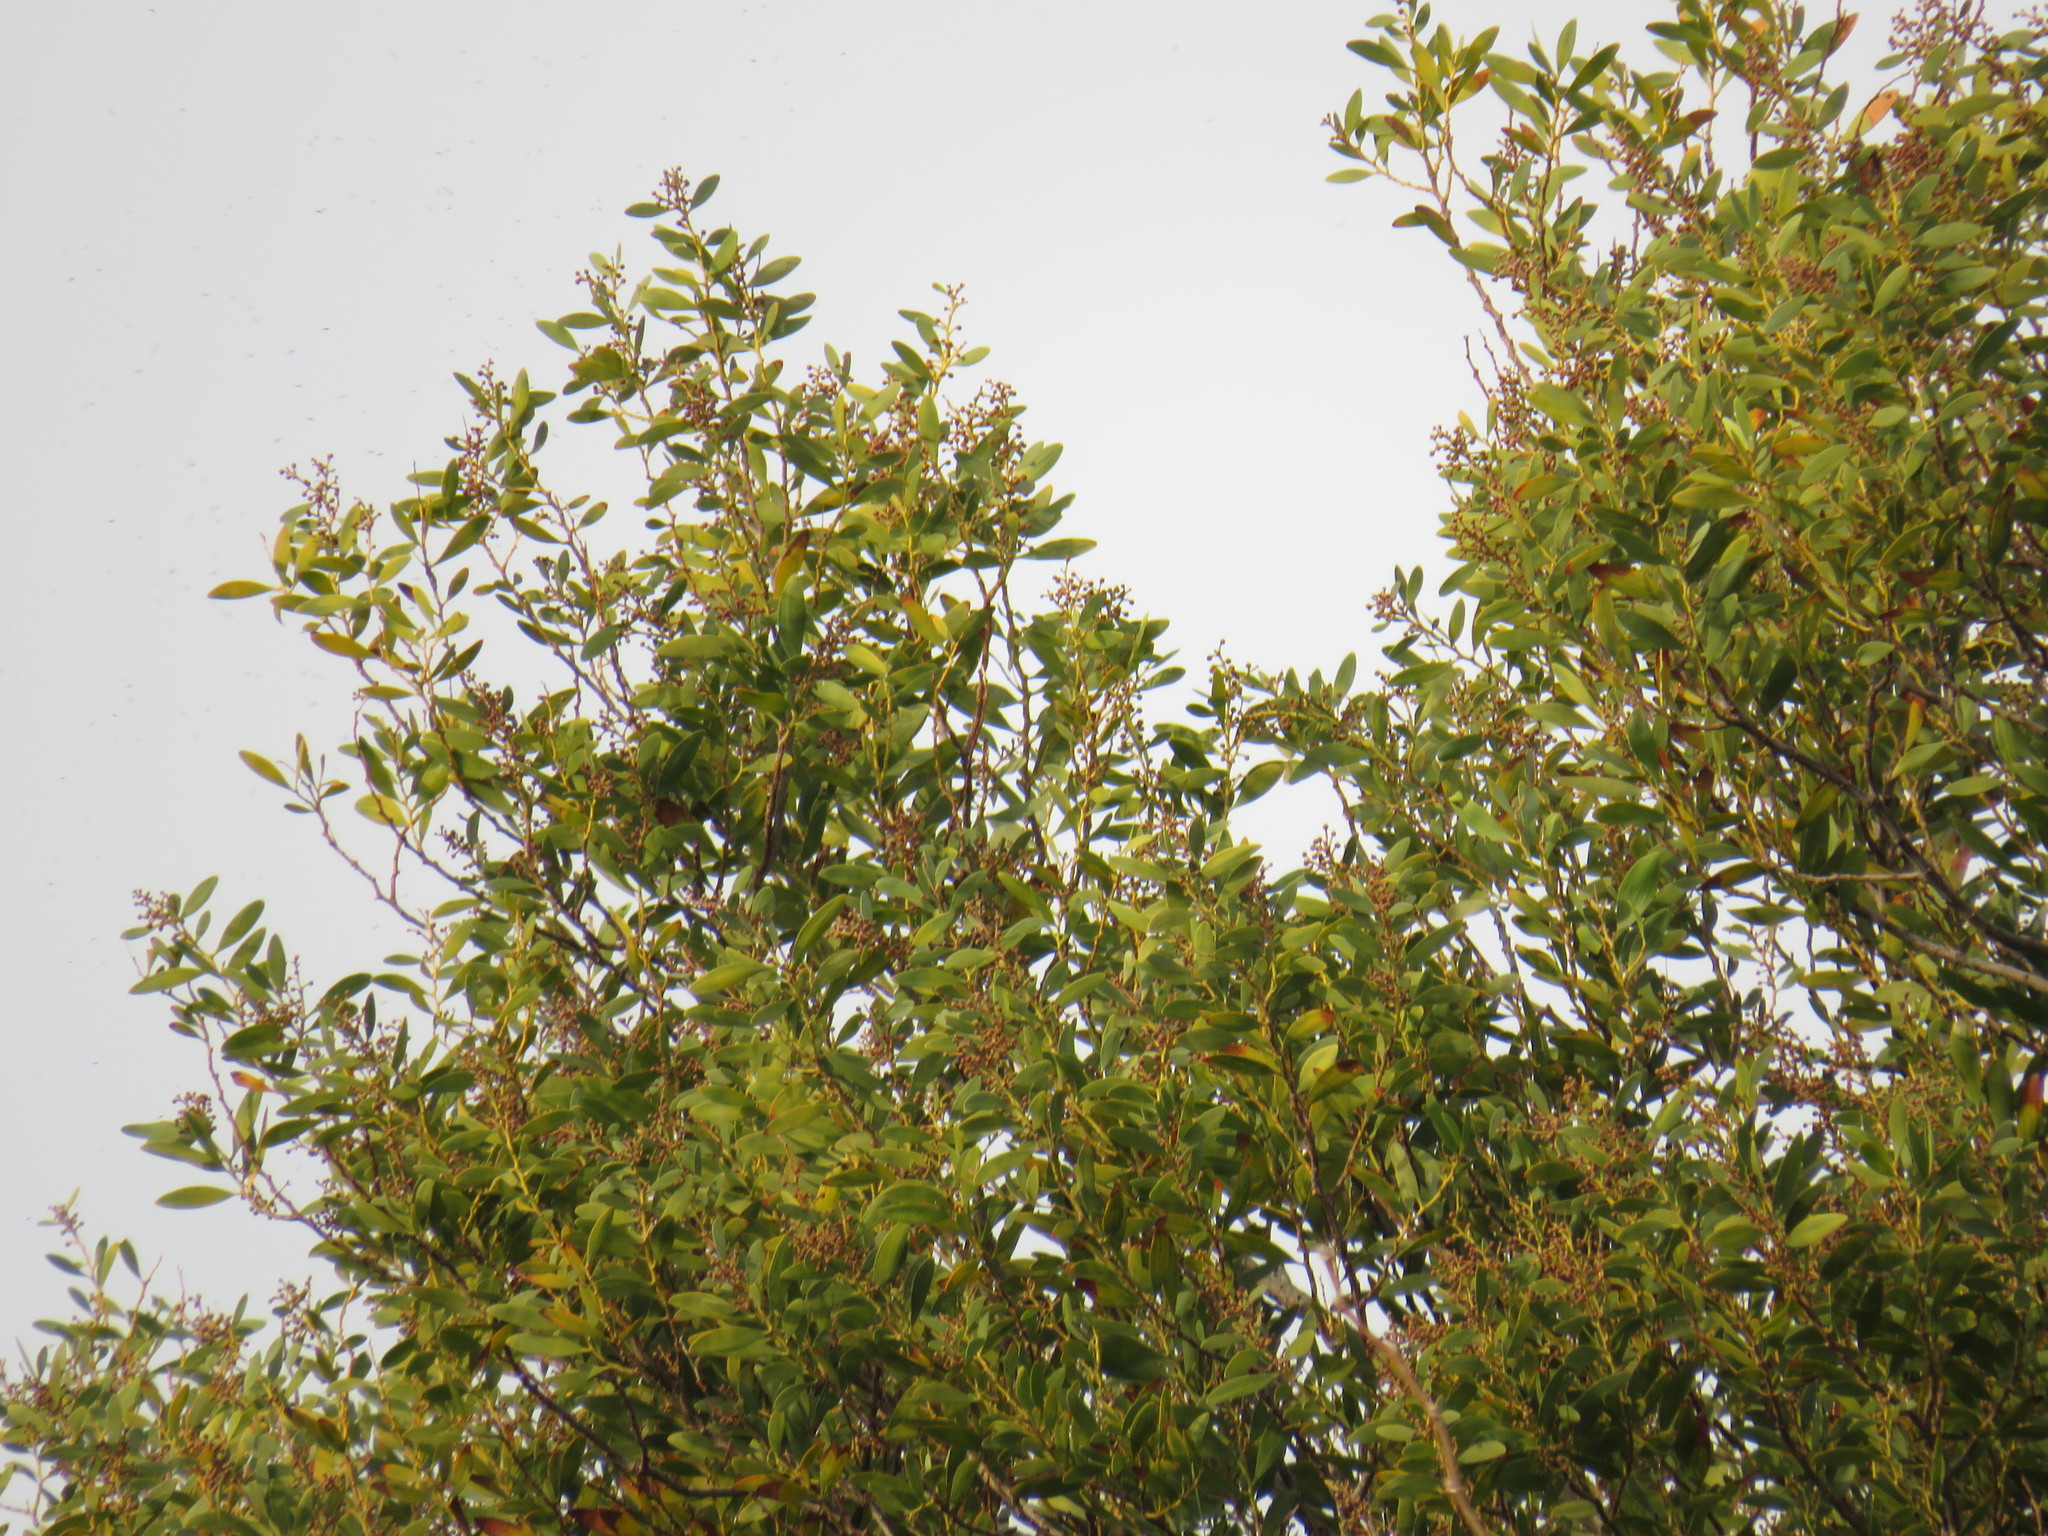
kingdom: Plantae
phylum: Tracheophyta
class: Magnoliopsida
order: Fabales
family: Fabaceae
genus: Acacia
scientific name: Acacia melanoxylon
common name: Blackwood
